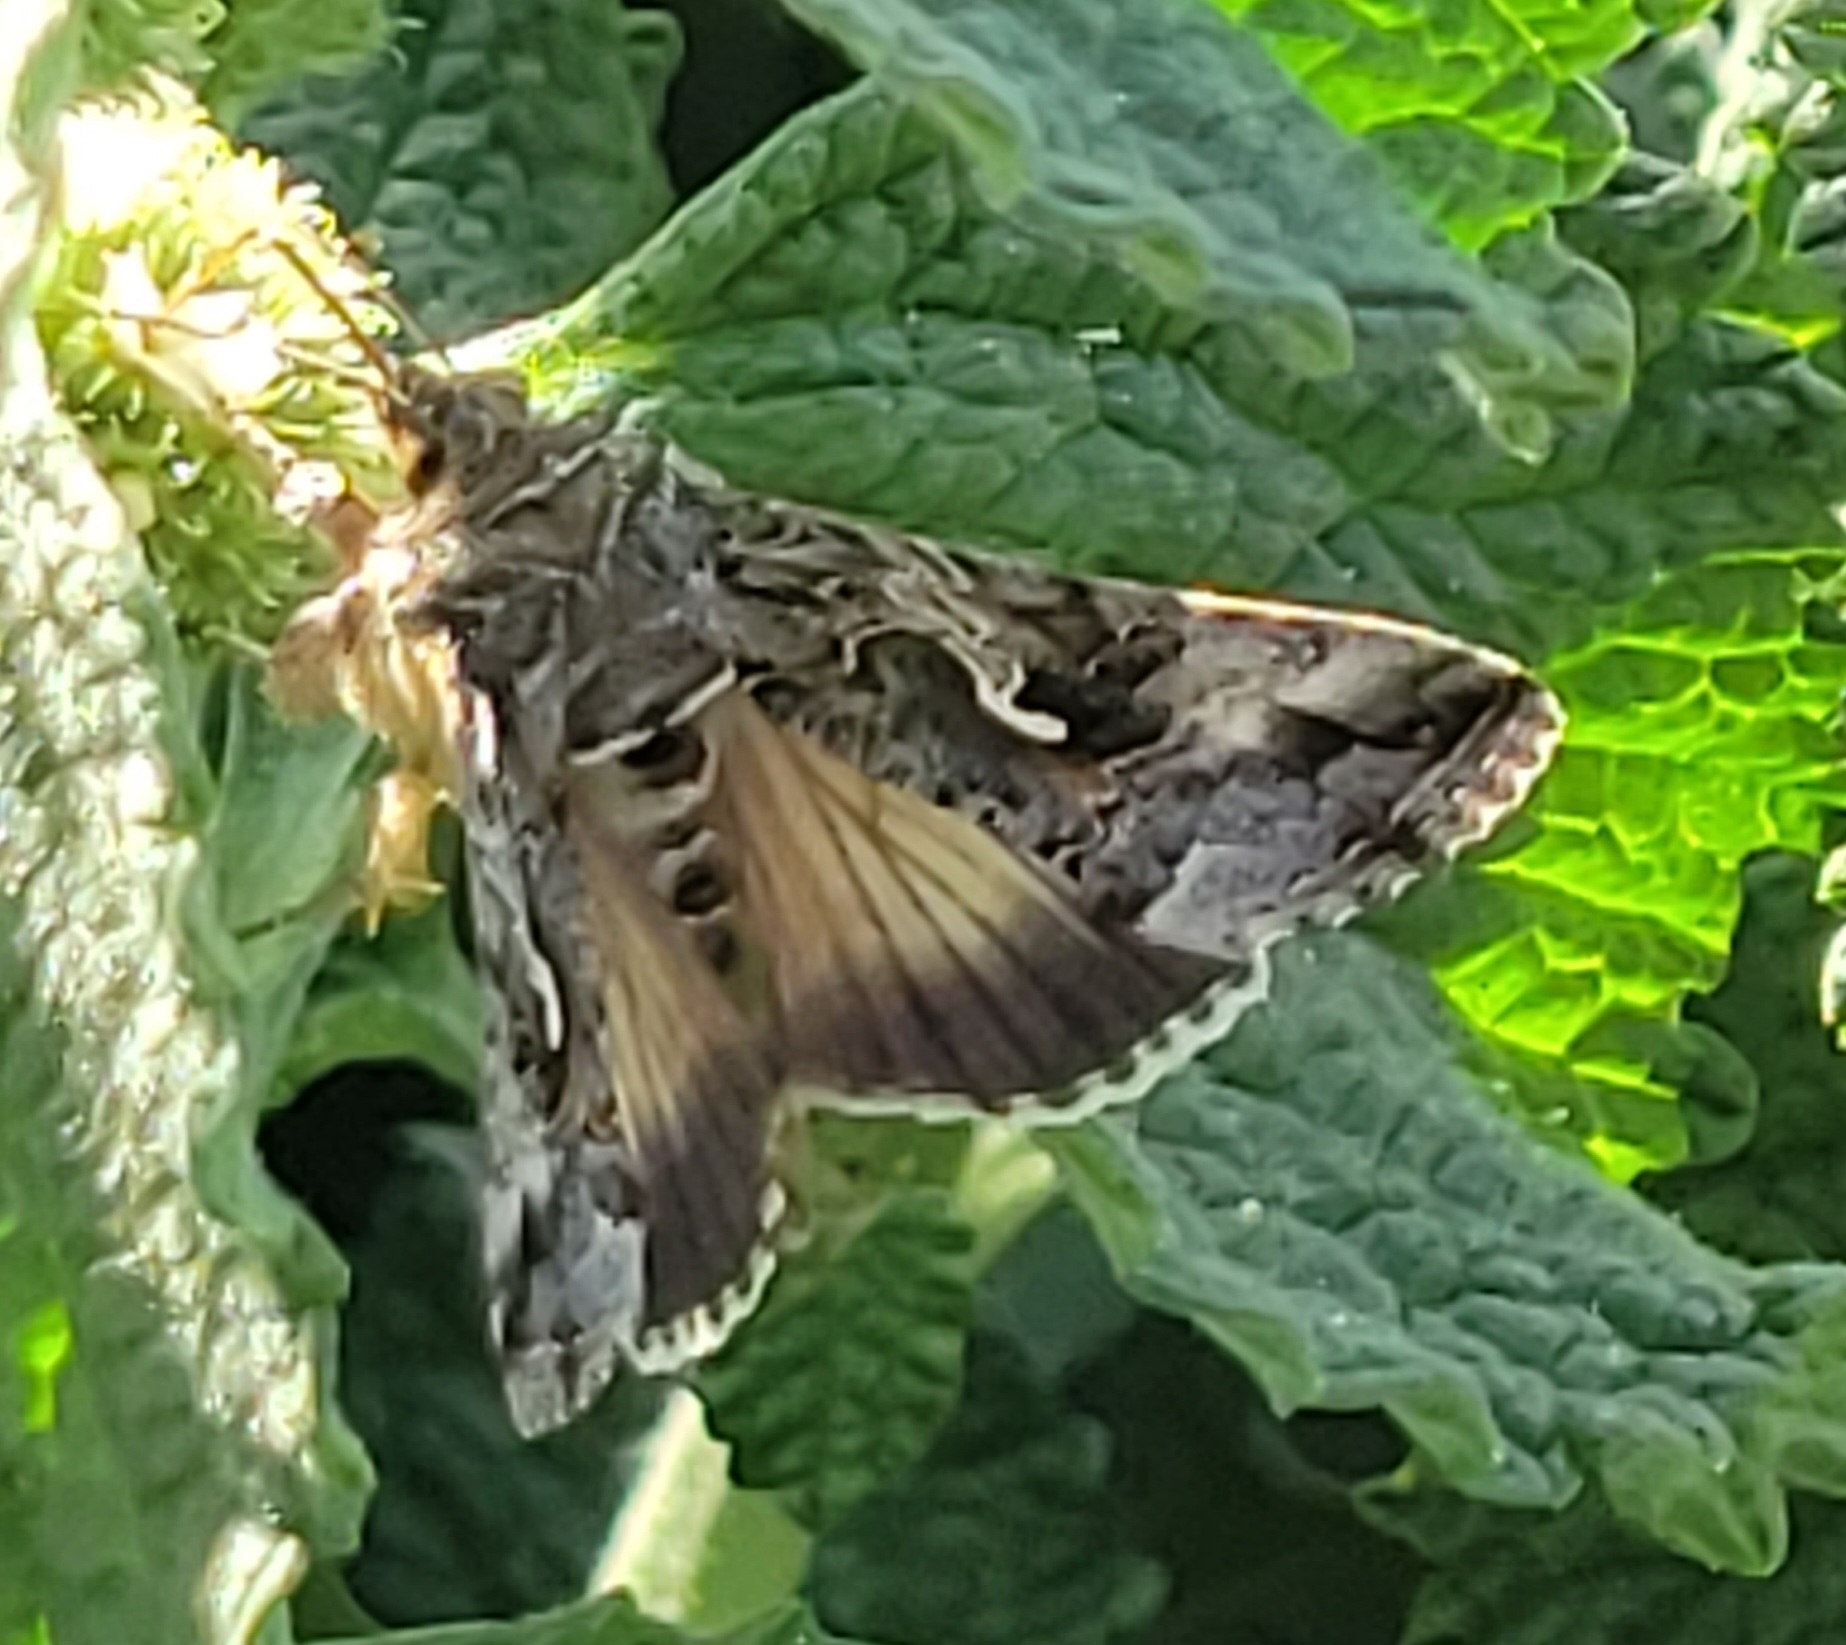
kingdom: Animalia
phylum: Arthropoda
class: Insecta
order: Lepidoptera
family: Noctuidae
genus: Autographa
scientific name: Autographa californica
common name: Alfalfa looper
